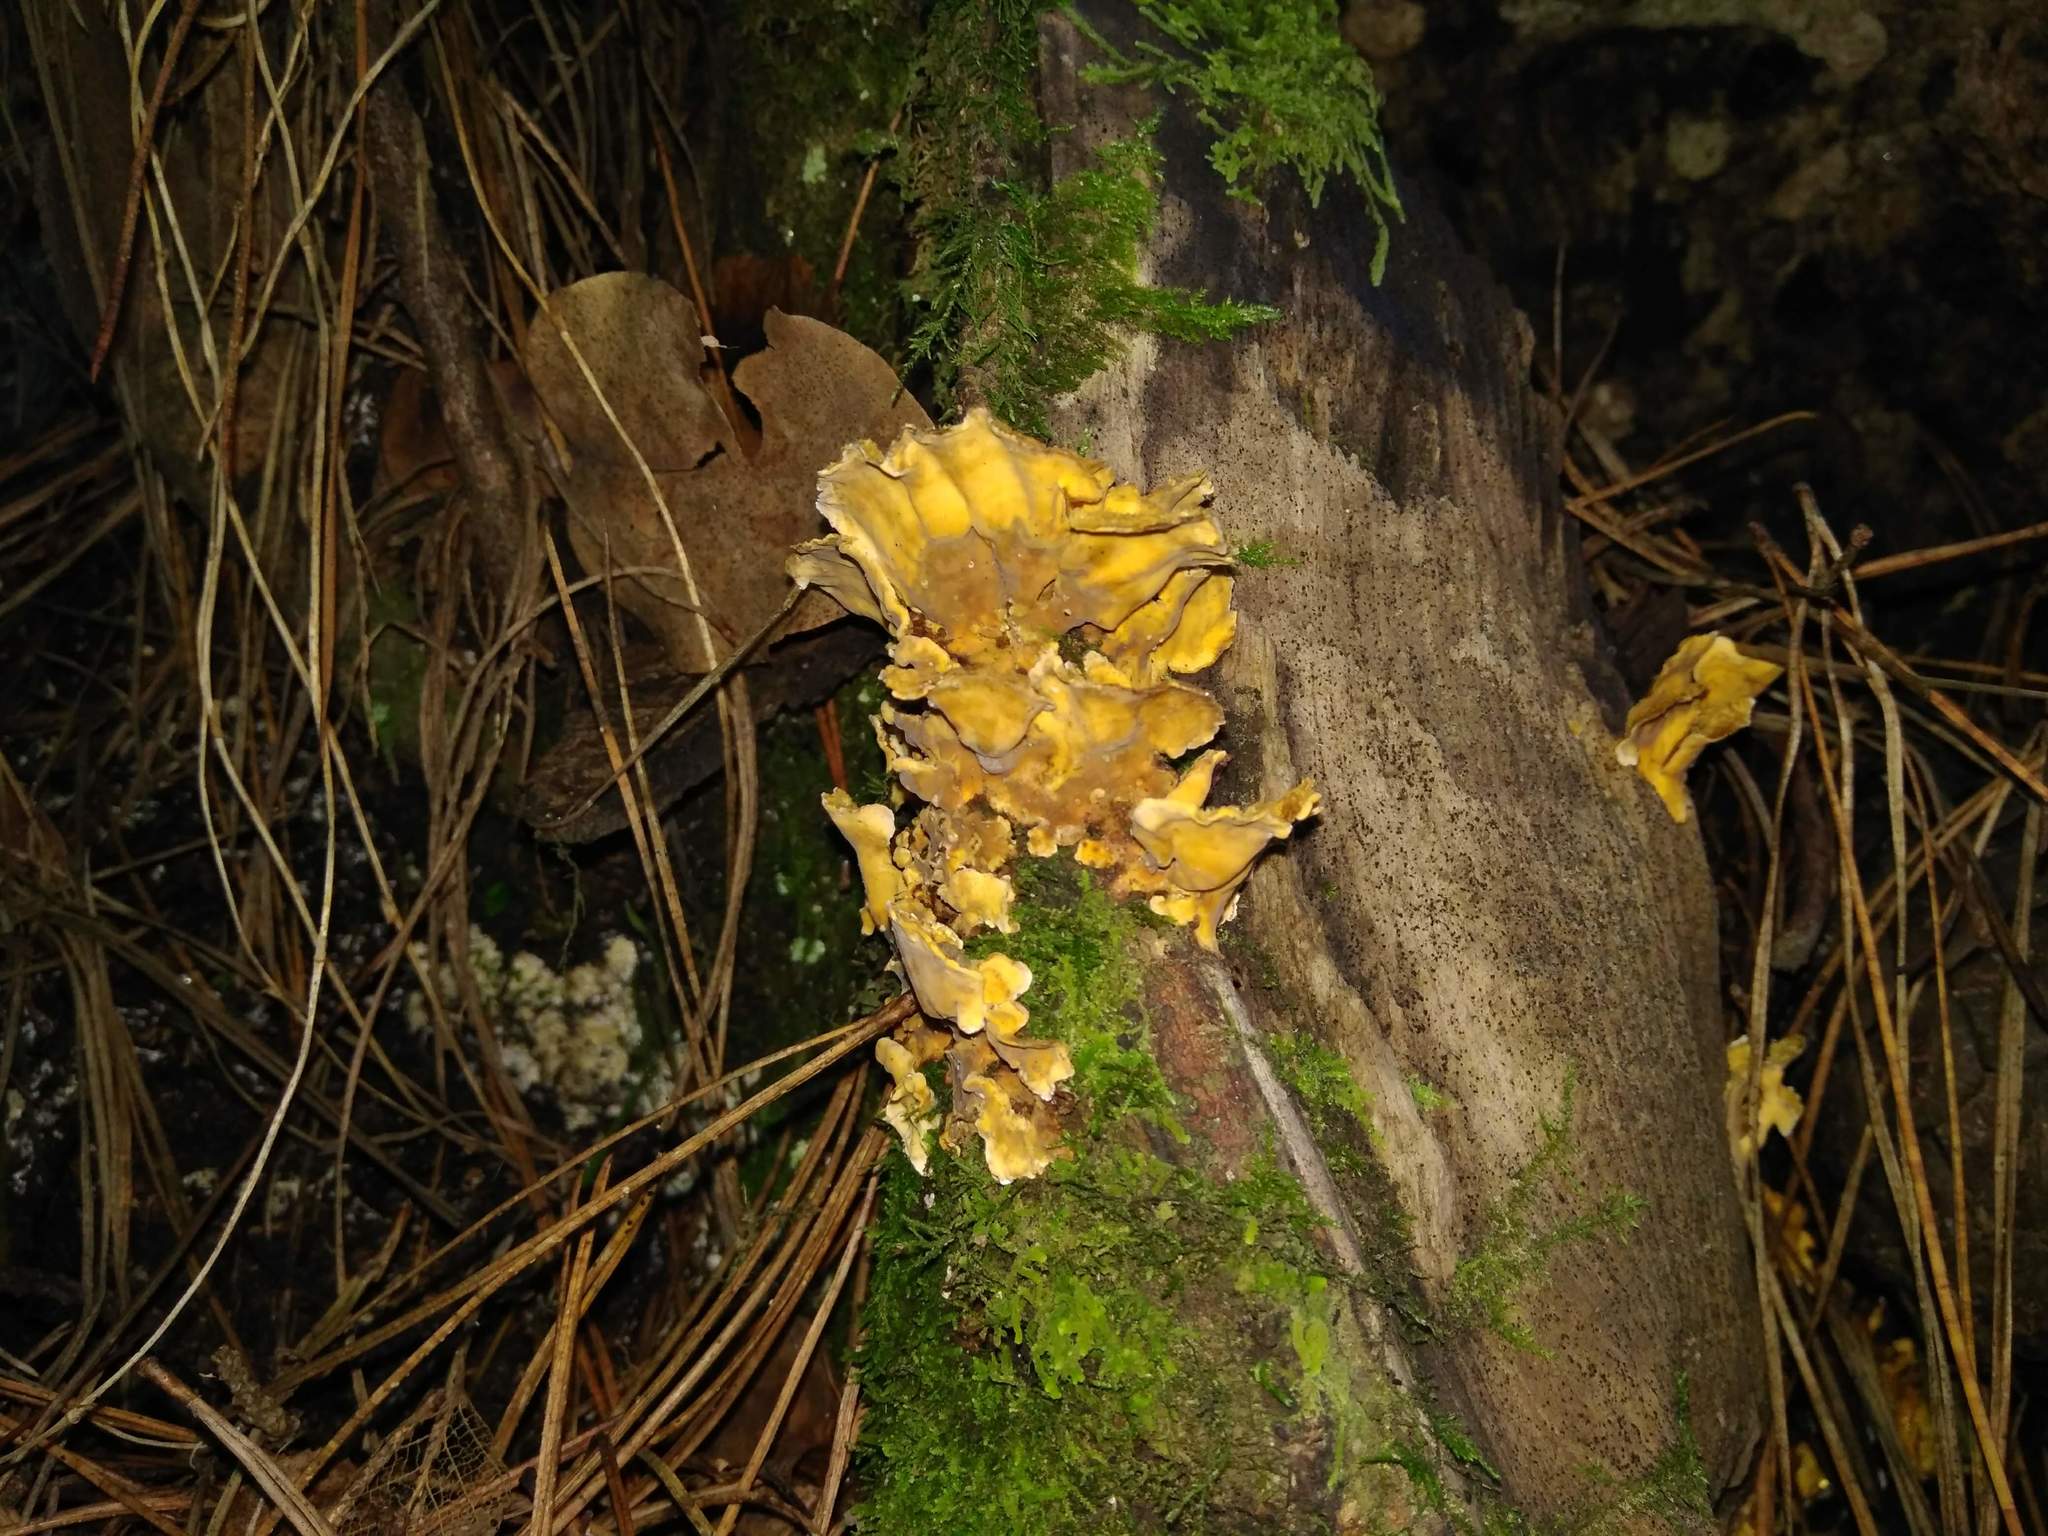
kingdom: Fungi
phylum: Basidiomycota
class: Agaricomycetes
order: Russulales
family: Stereaceae
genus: Stereum
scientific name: Stereum hirsutum
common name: Hairy curtain crust
